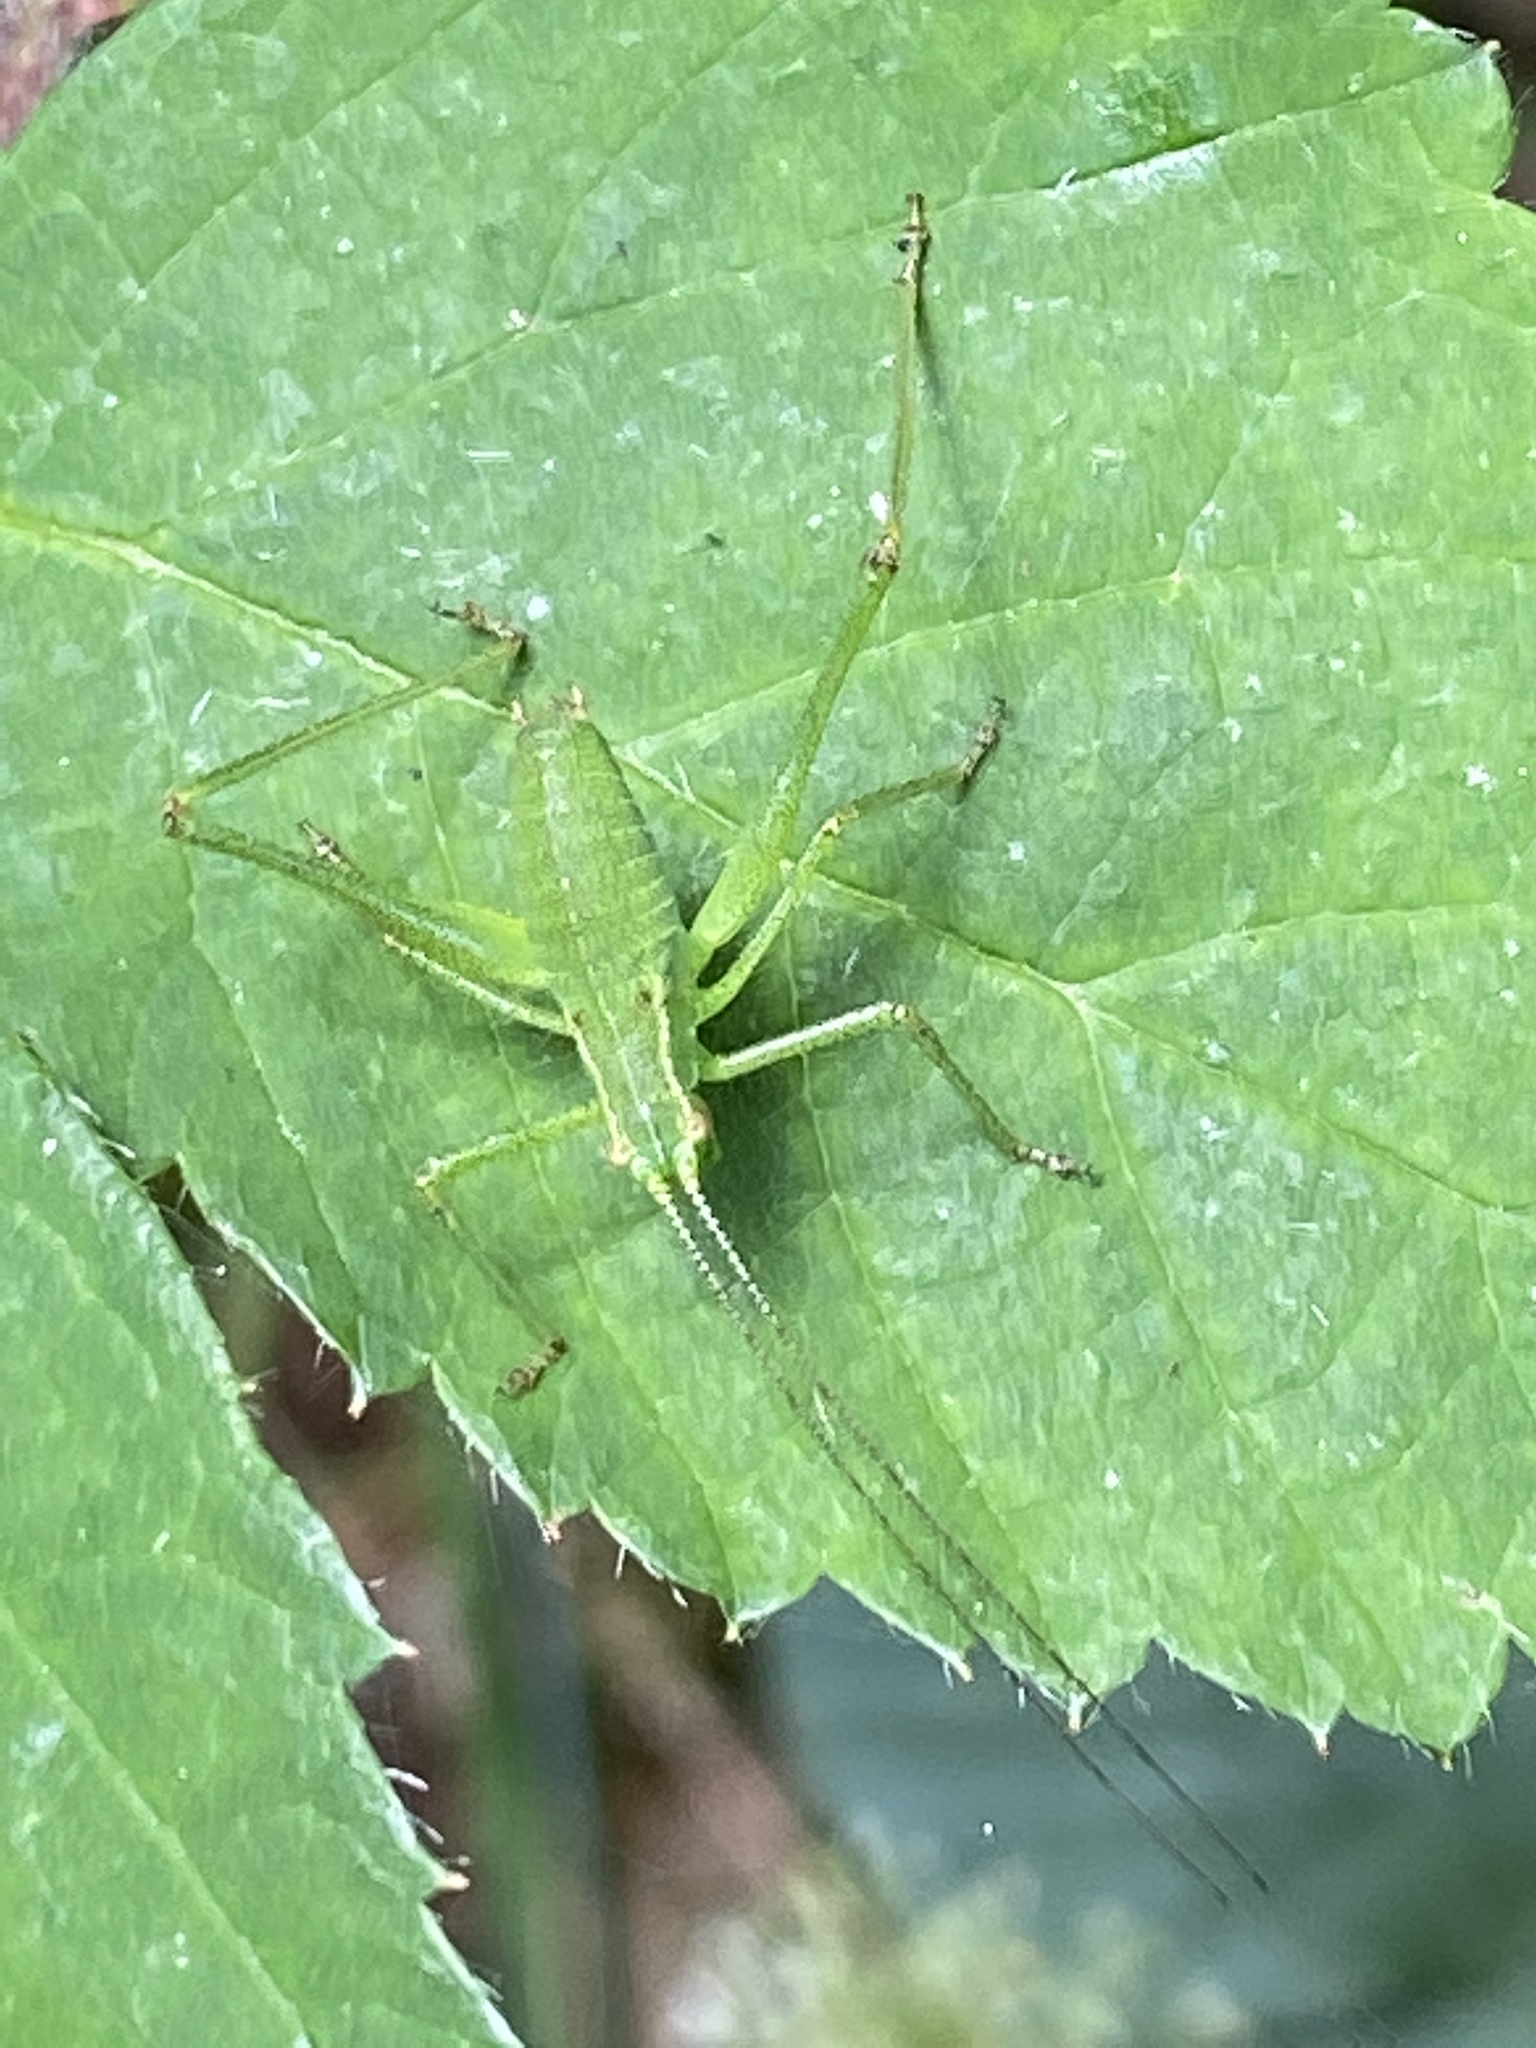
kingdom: Animalia
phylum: Arthropoda
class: Insecta
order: Orthoptera
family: Tettigoniidae
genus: Leptophyes
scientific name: Leptophyes punctatissima
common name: Speckled bush-cricket
